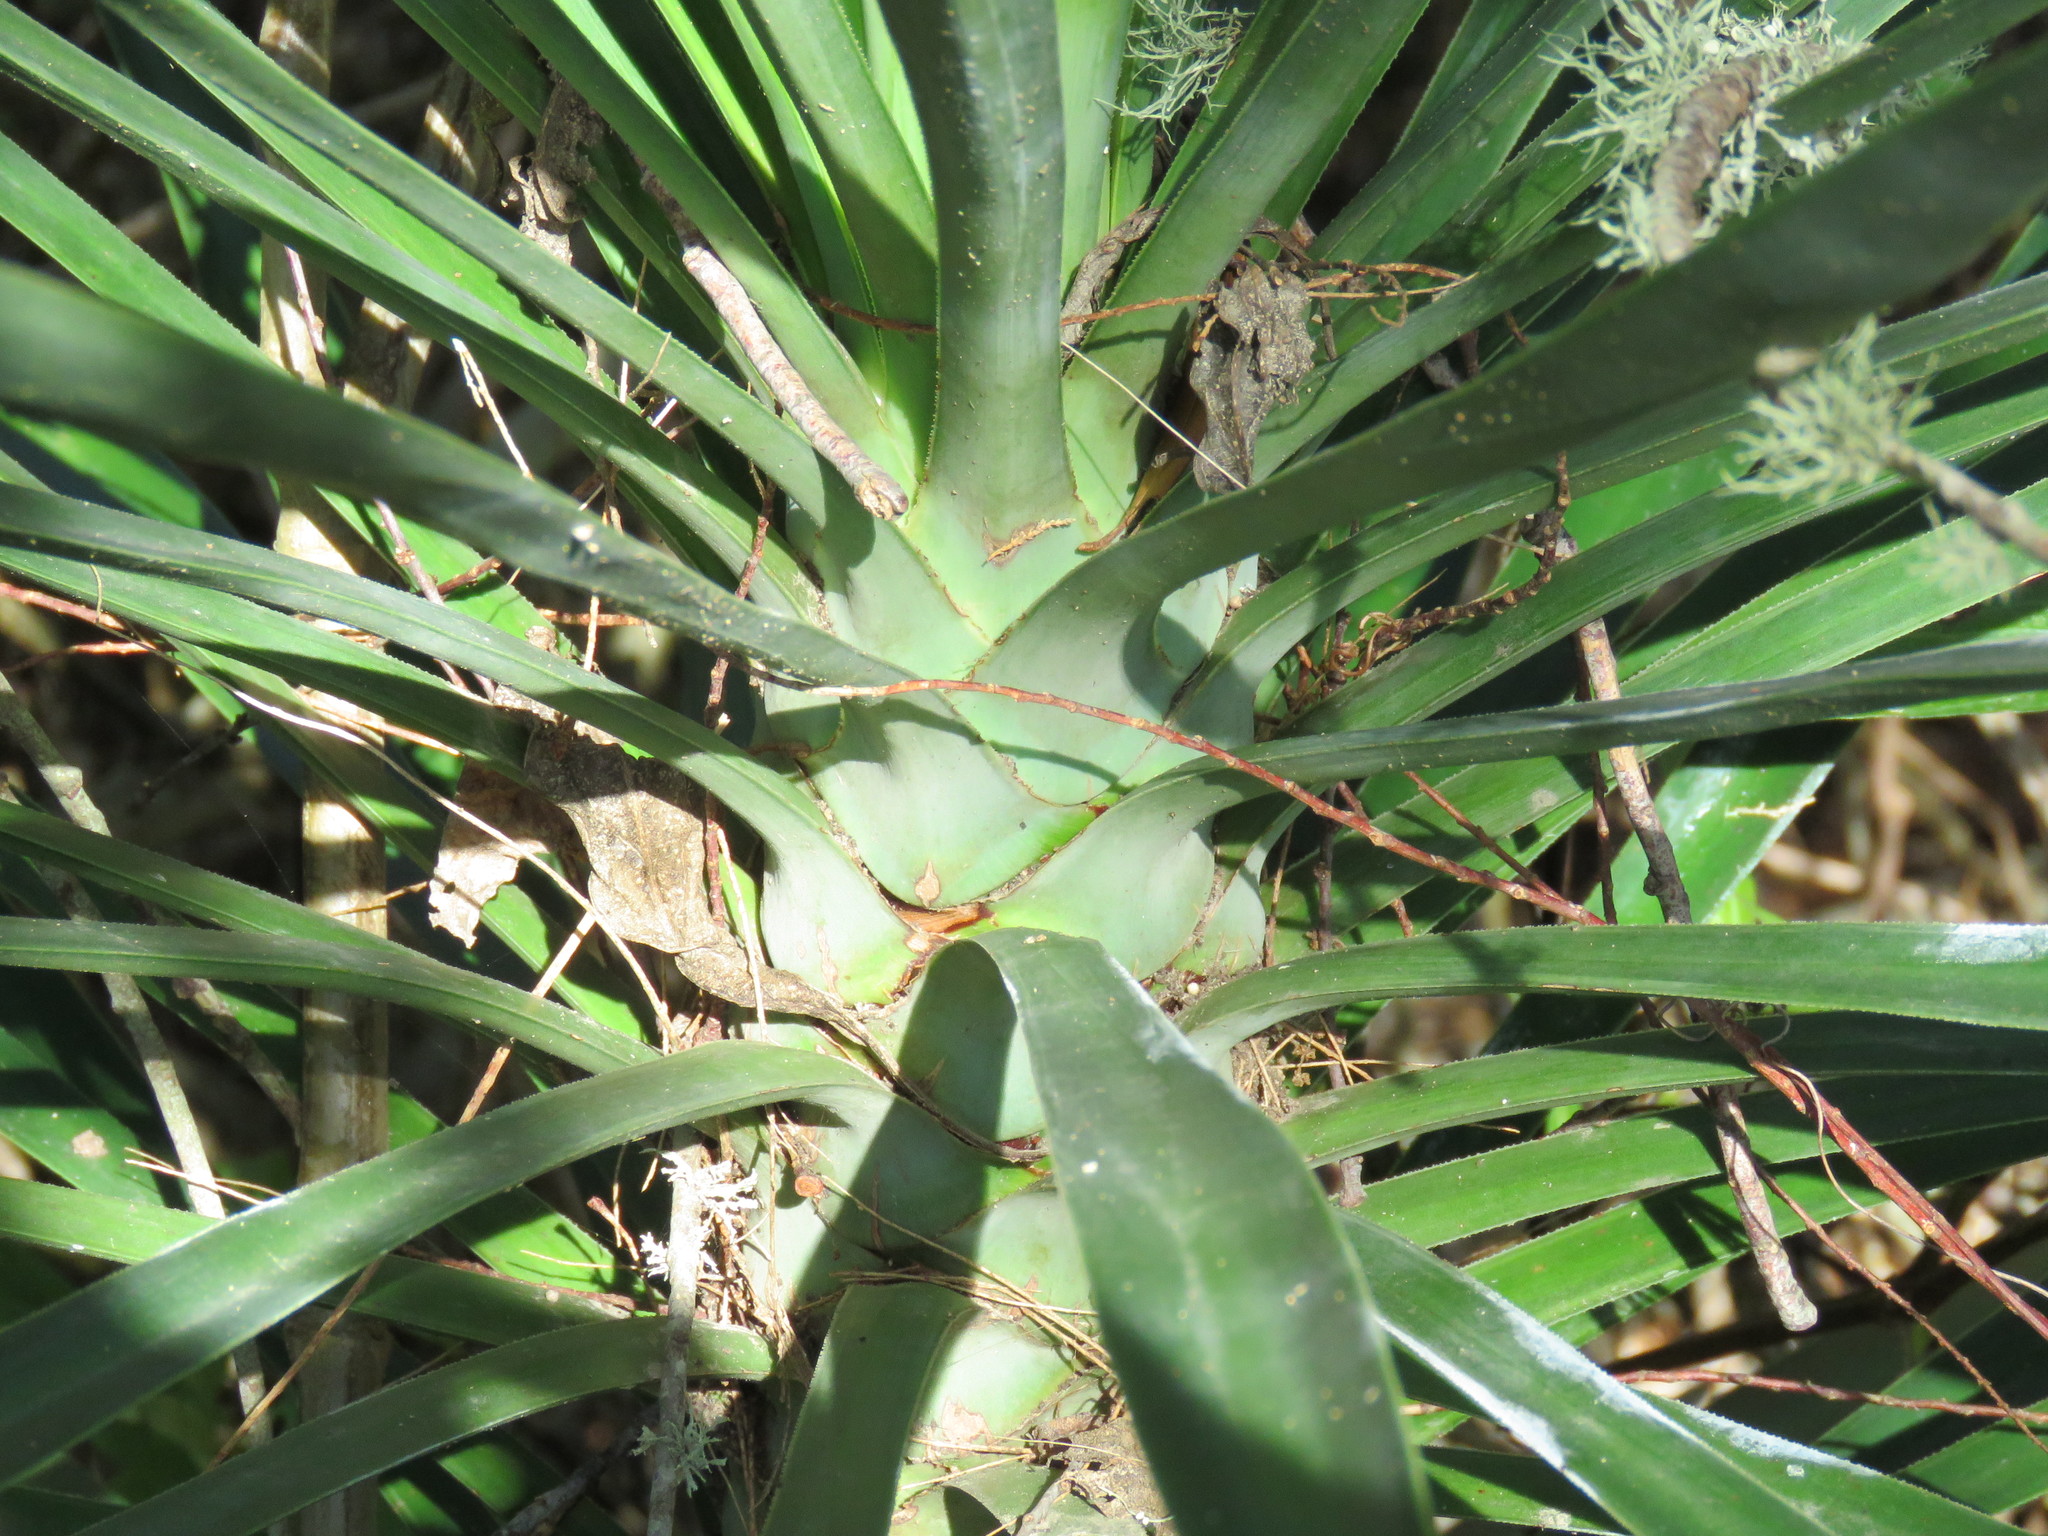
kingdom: Plantae
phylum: Tracheophyta
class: Liliopsida
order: Asparagales
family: Asparagaceae
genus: Yucca
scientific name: Yucca aloifolia
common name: Aloe yucca
